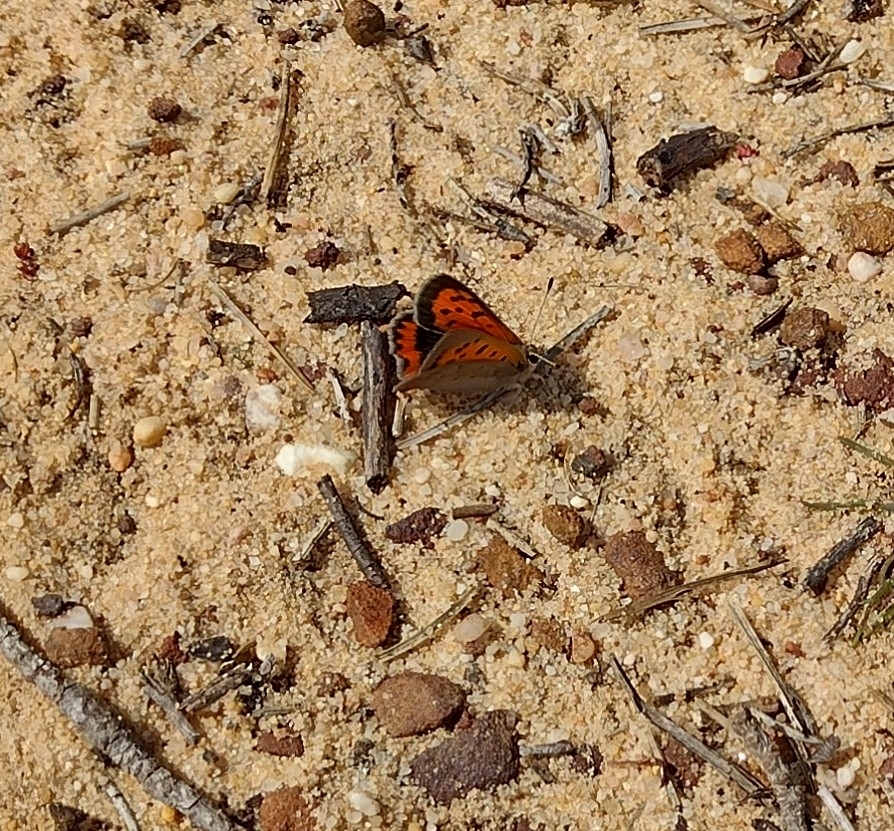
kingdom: Animalia
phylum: Arthropoda
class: Insecta
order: Lepidoptera
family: Lycaenidae
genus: Lycaena
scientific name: Lycaena phlaeas
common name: Small copper
